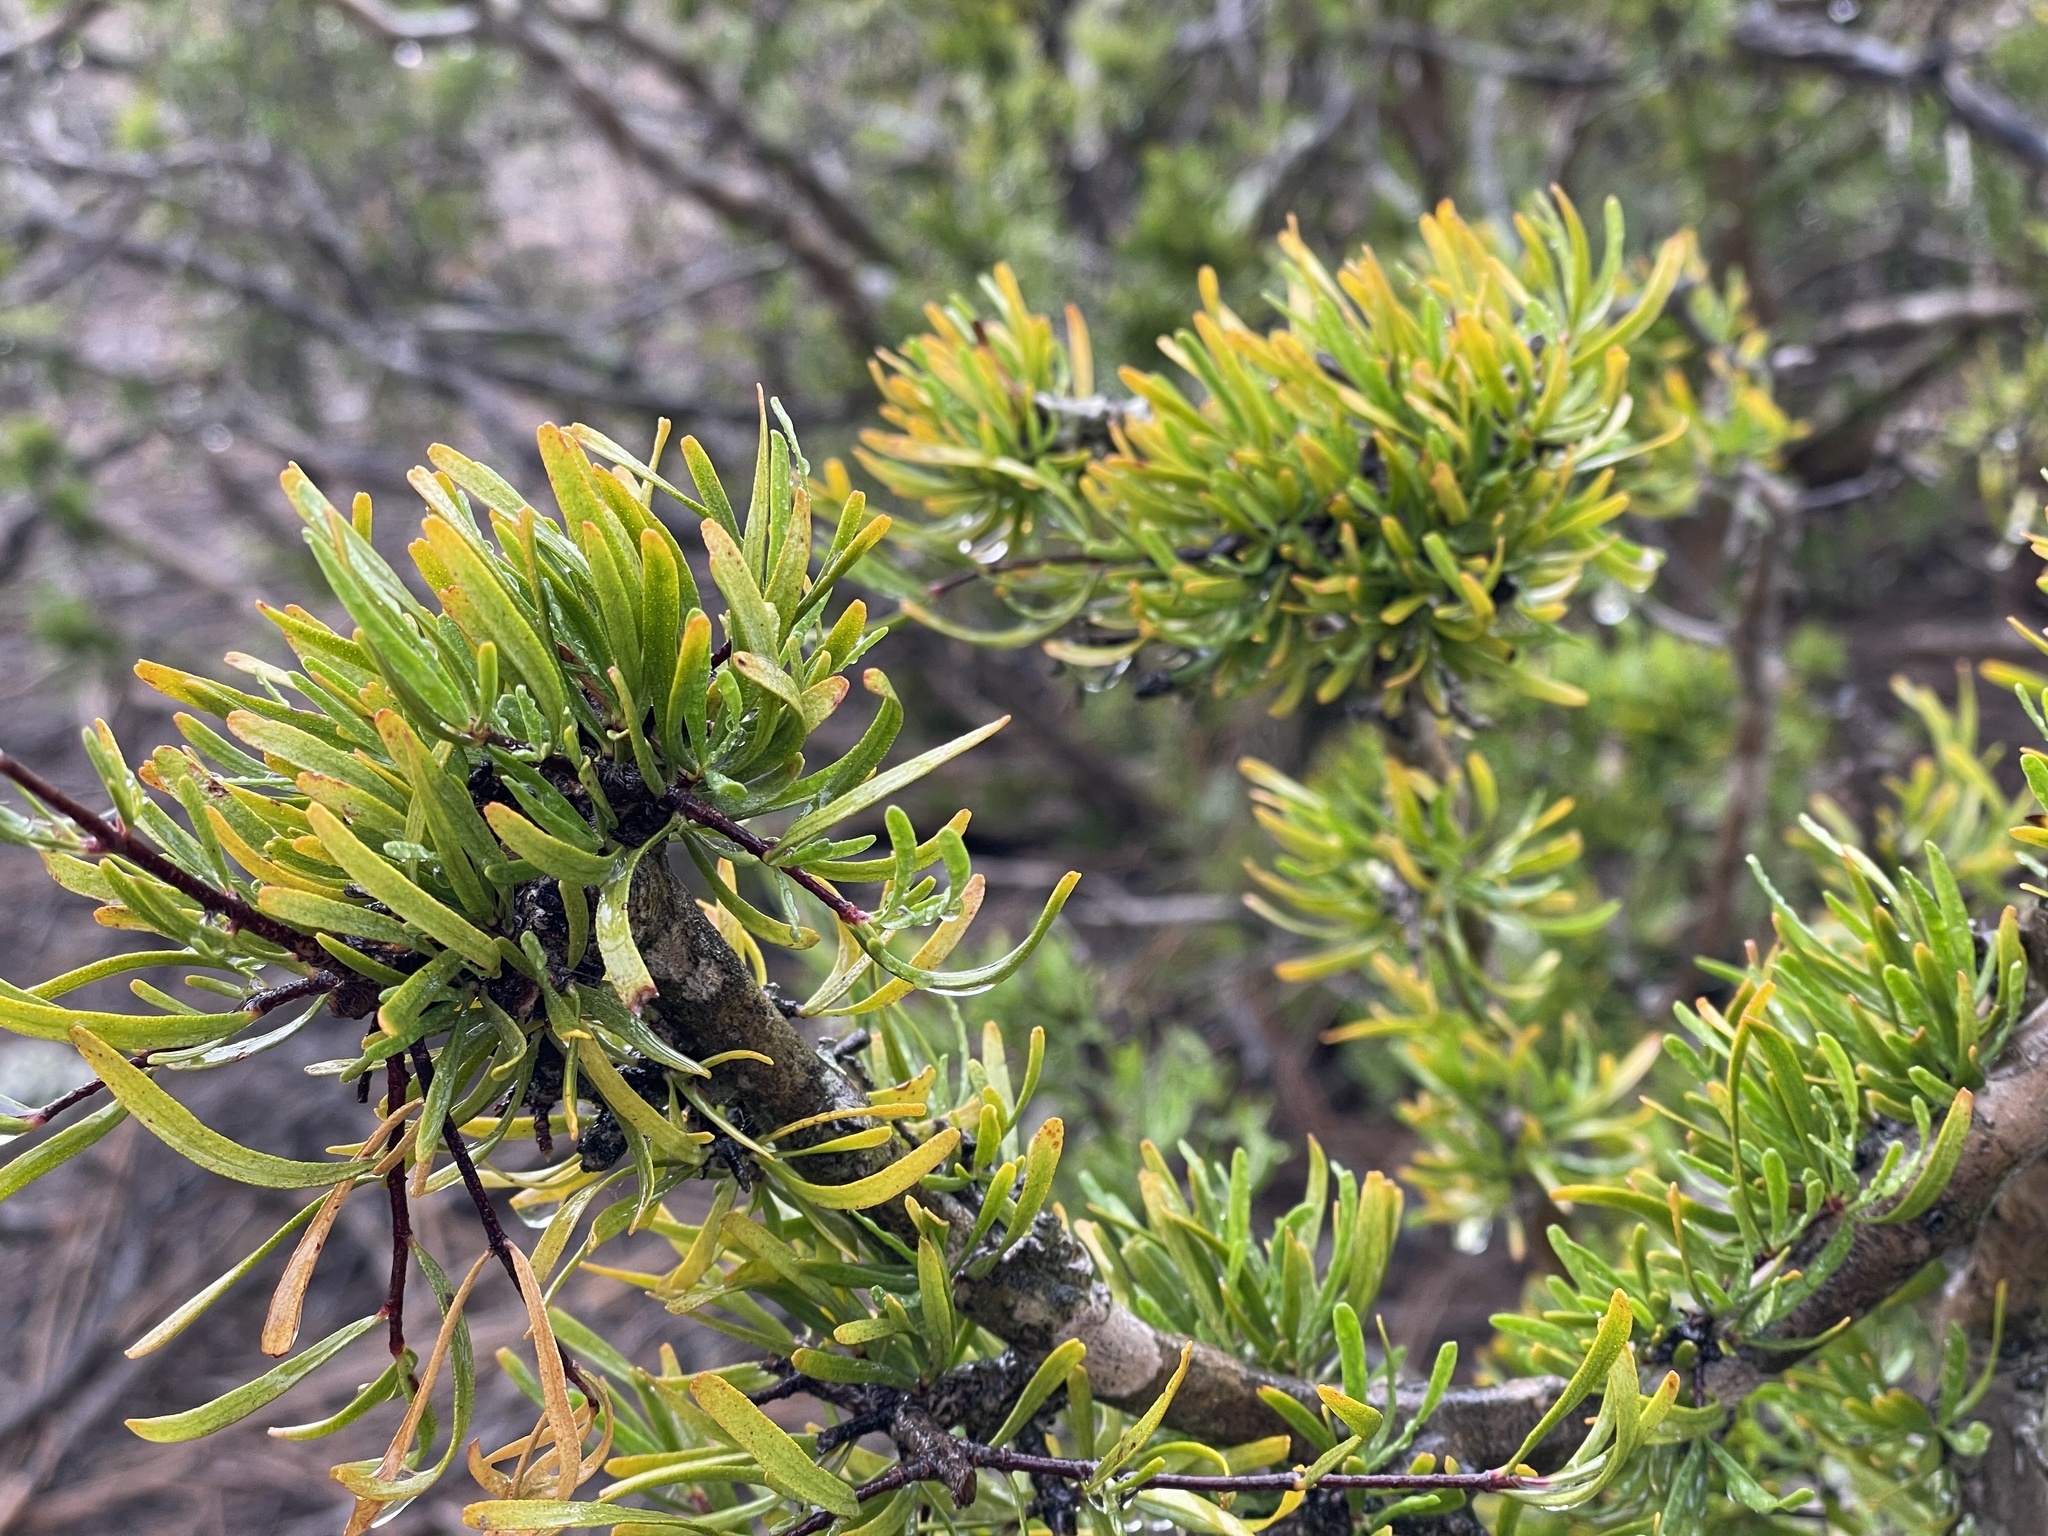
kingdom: Plantae
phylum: Tracheophyta
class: Magnoliopsida
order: Sapindales
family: Rutaceae
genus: Cneoridium
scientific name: Cneoridium dumosum
